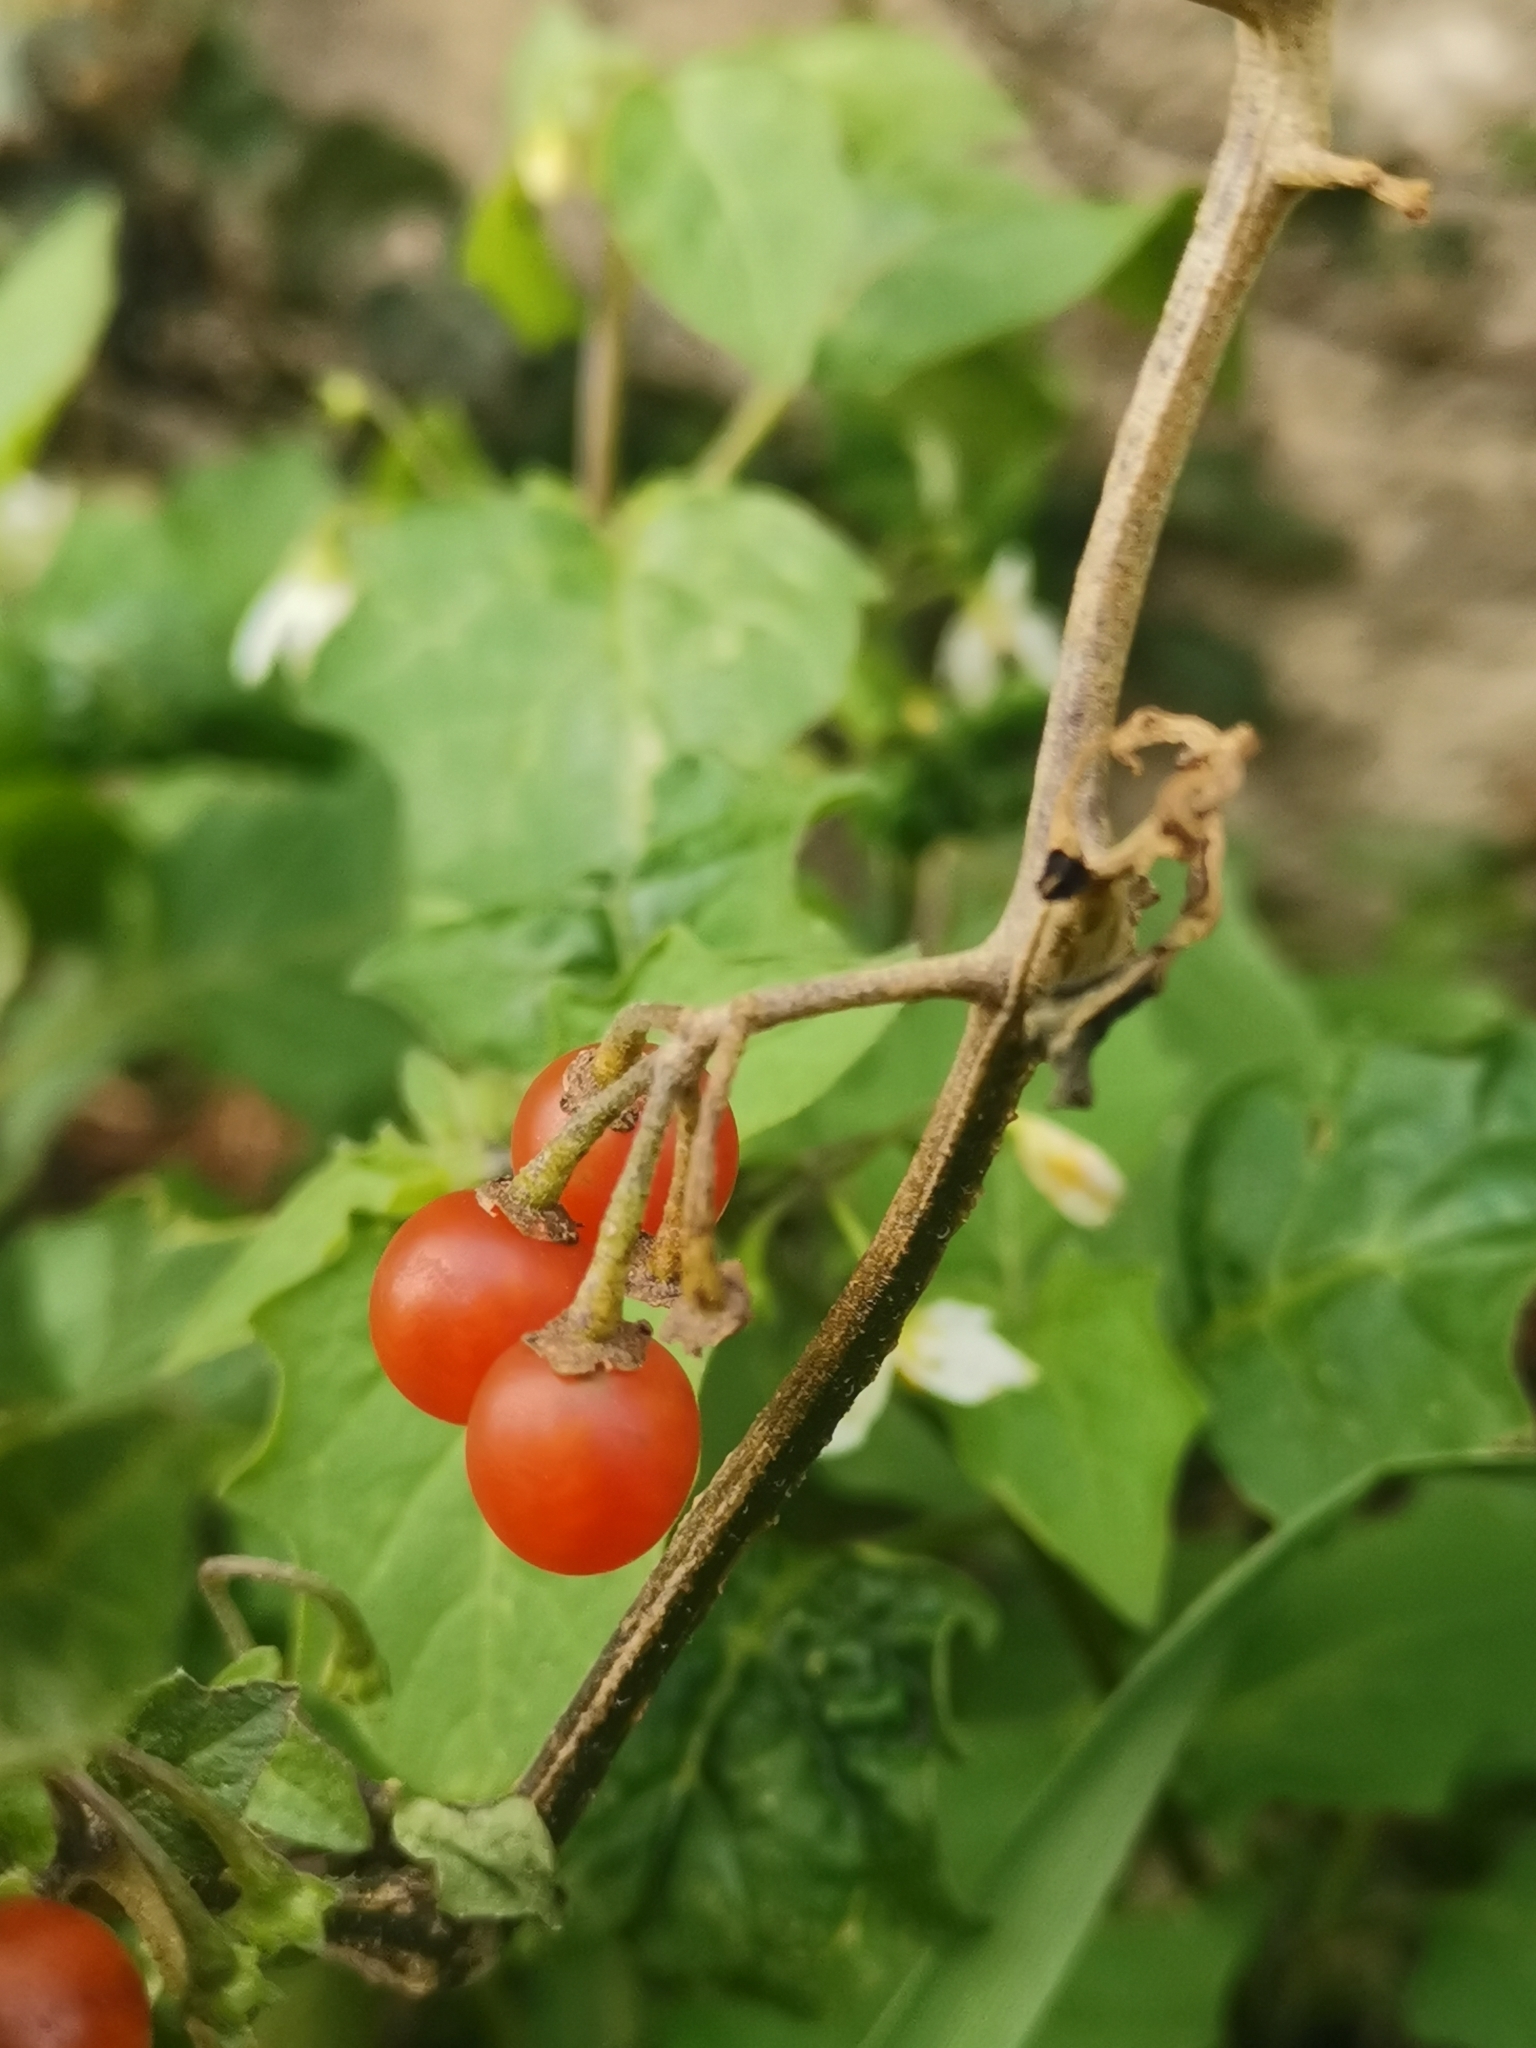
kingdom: Plantae
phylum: Tracheophyta
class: Magnoliopsida
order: Solanales
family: Solanaceae
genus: Solanum
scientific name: Solanum villosum
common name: Red nightshade
